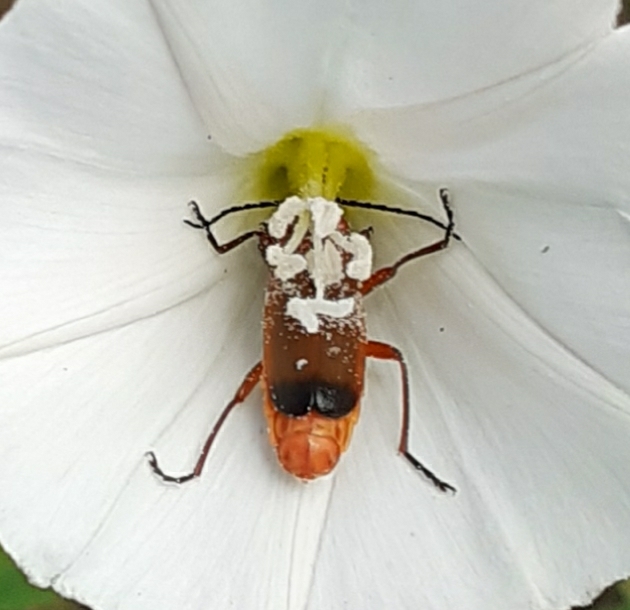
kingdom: Animalia
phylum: Arthropoda
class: Insecta
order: Coleoptera
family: Cantharidae
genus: Rhagonycha
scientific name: Rhagonycha fulva
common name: Common red soldier beetle
